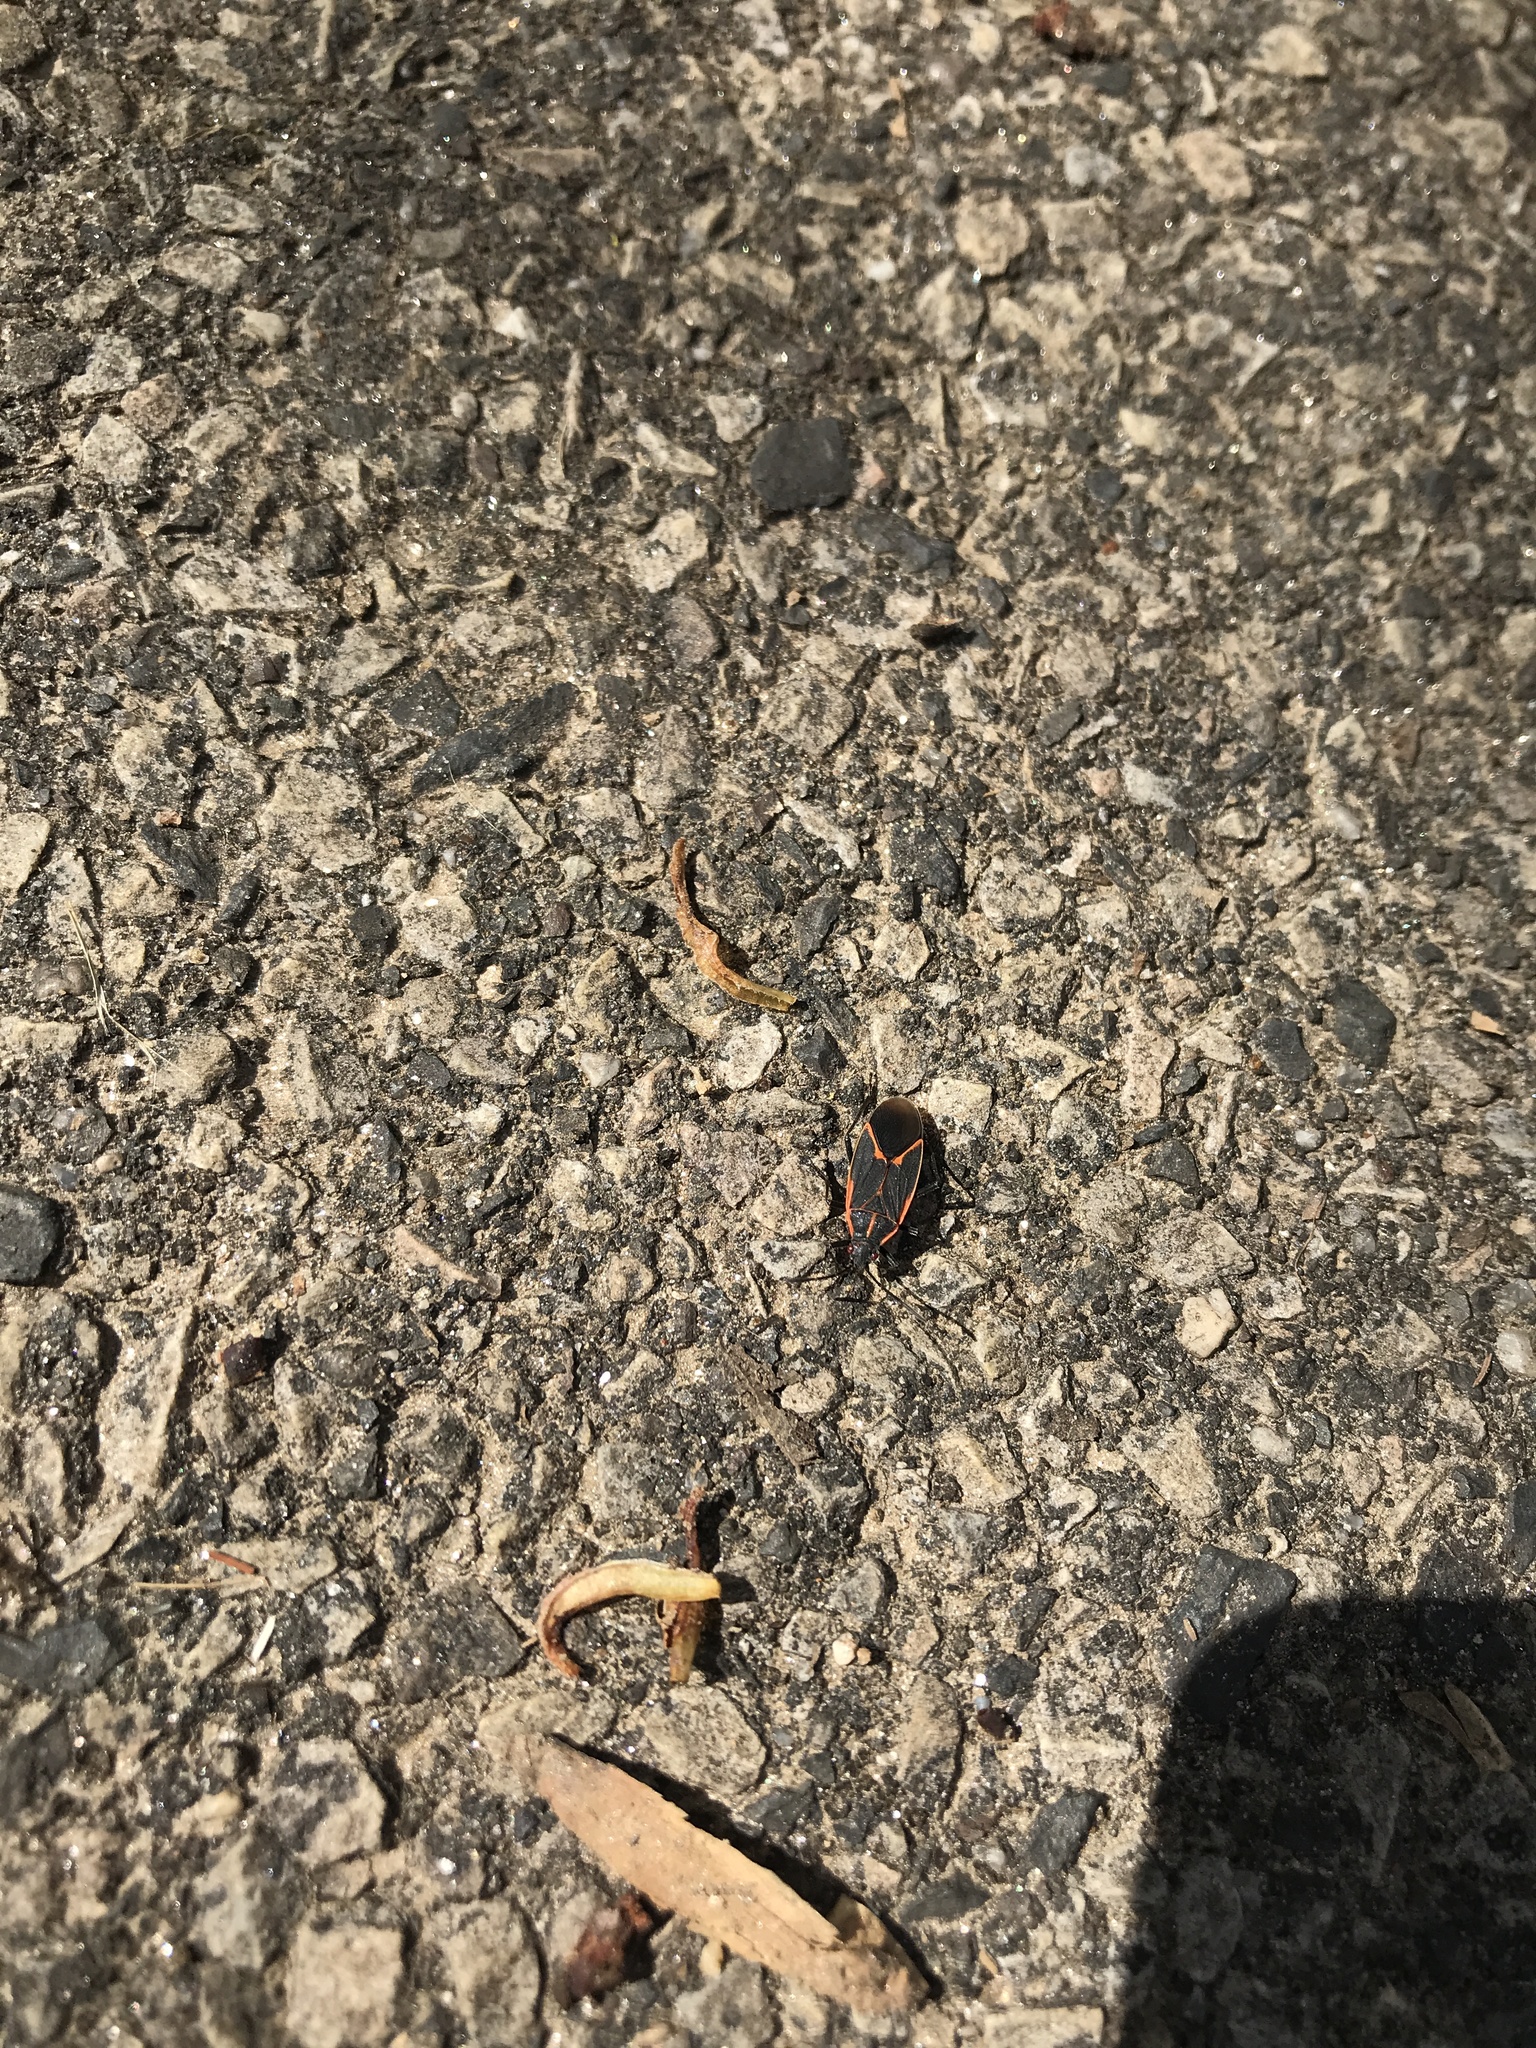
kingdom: Animalia
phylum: Arthropoda
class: Insecta
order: Hemiptera
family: Rhopalidae
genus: Boisea
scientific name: Boisea trivittata
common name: Boxelder bug
